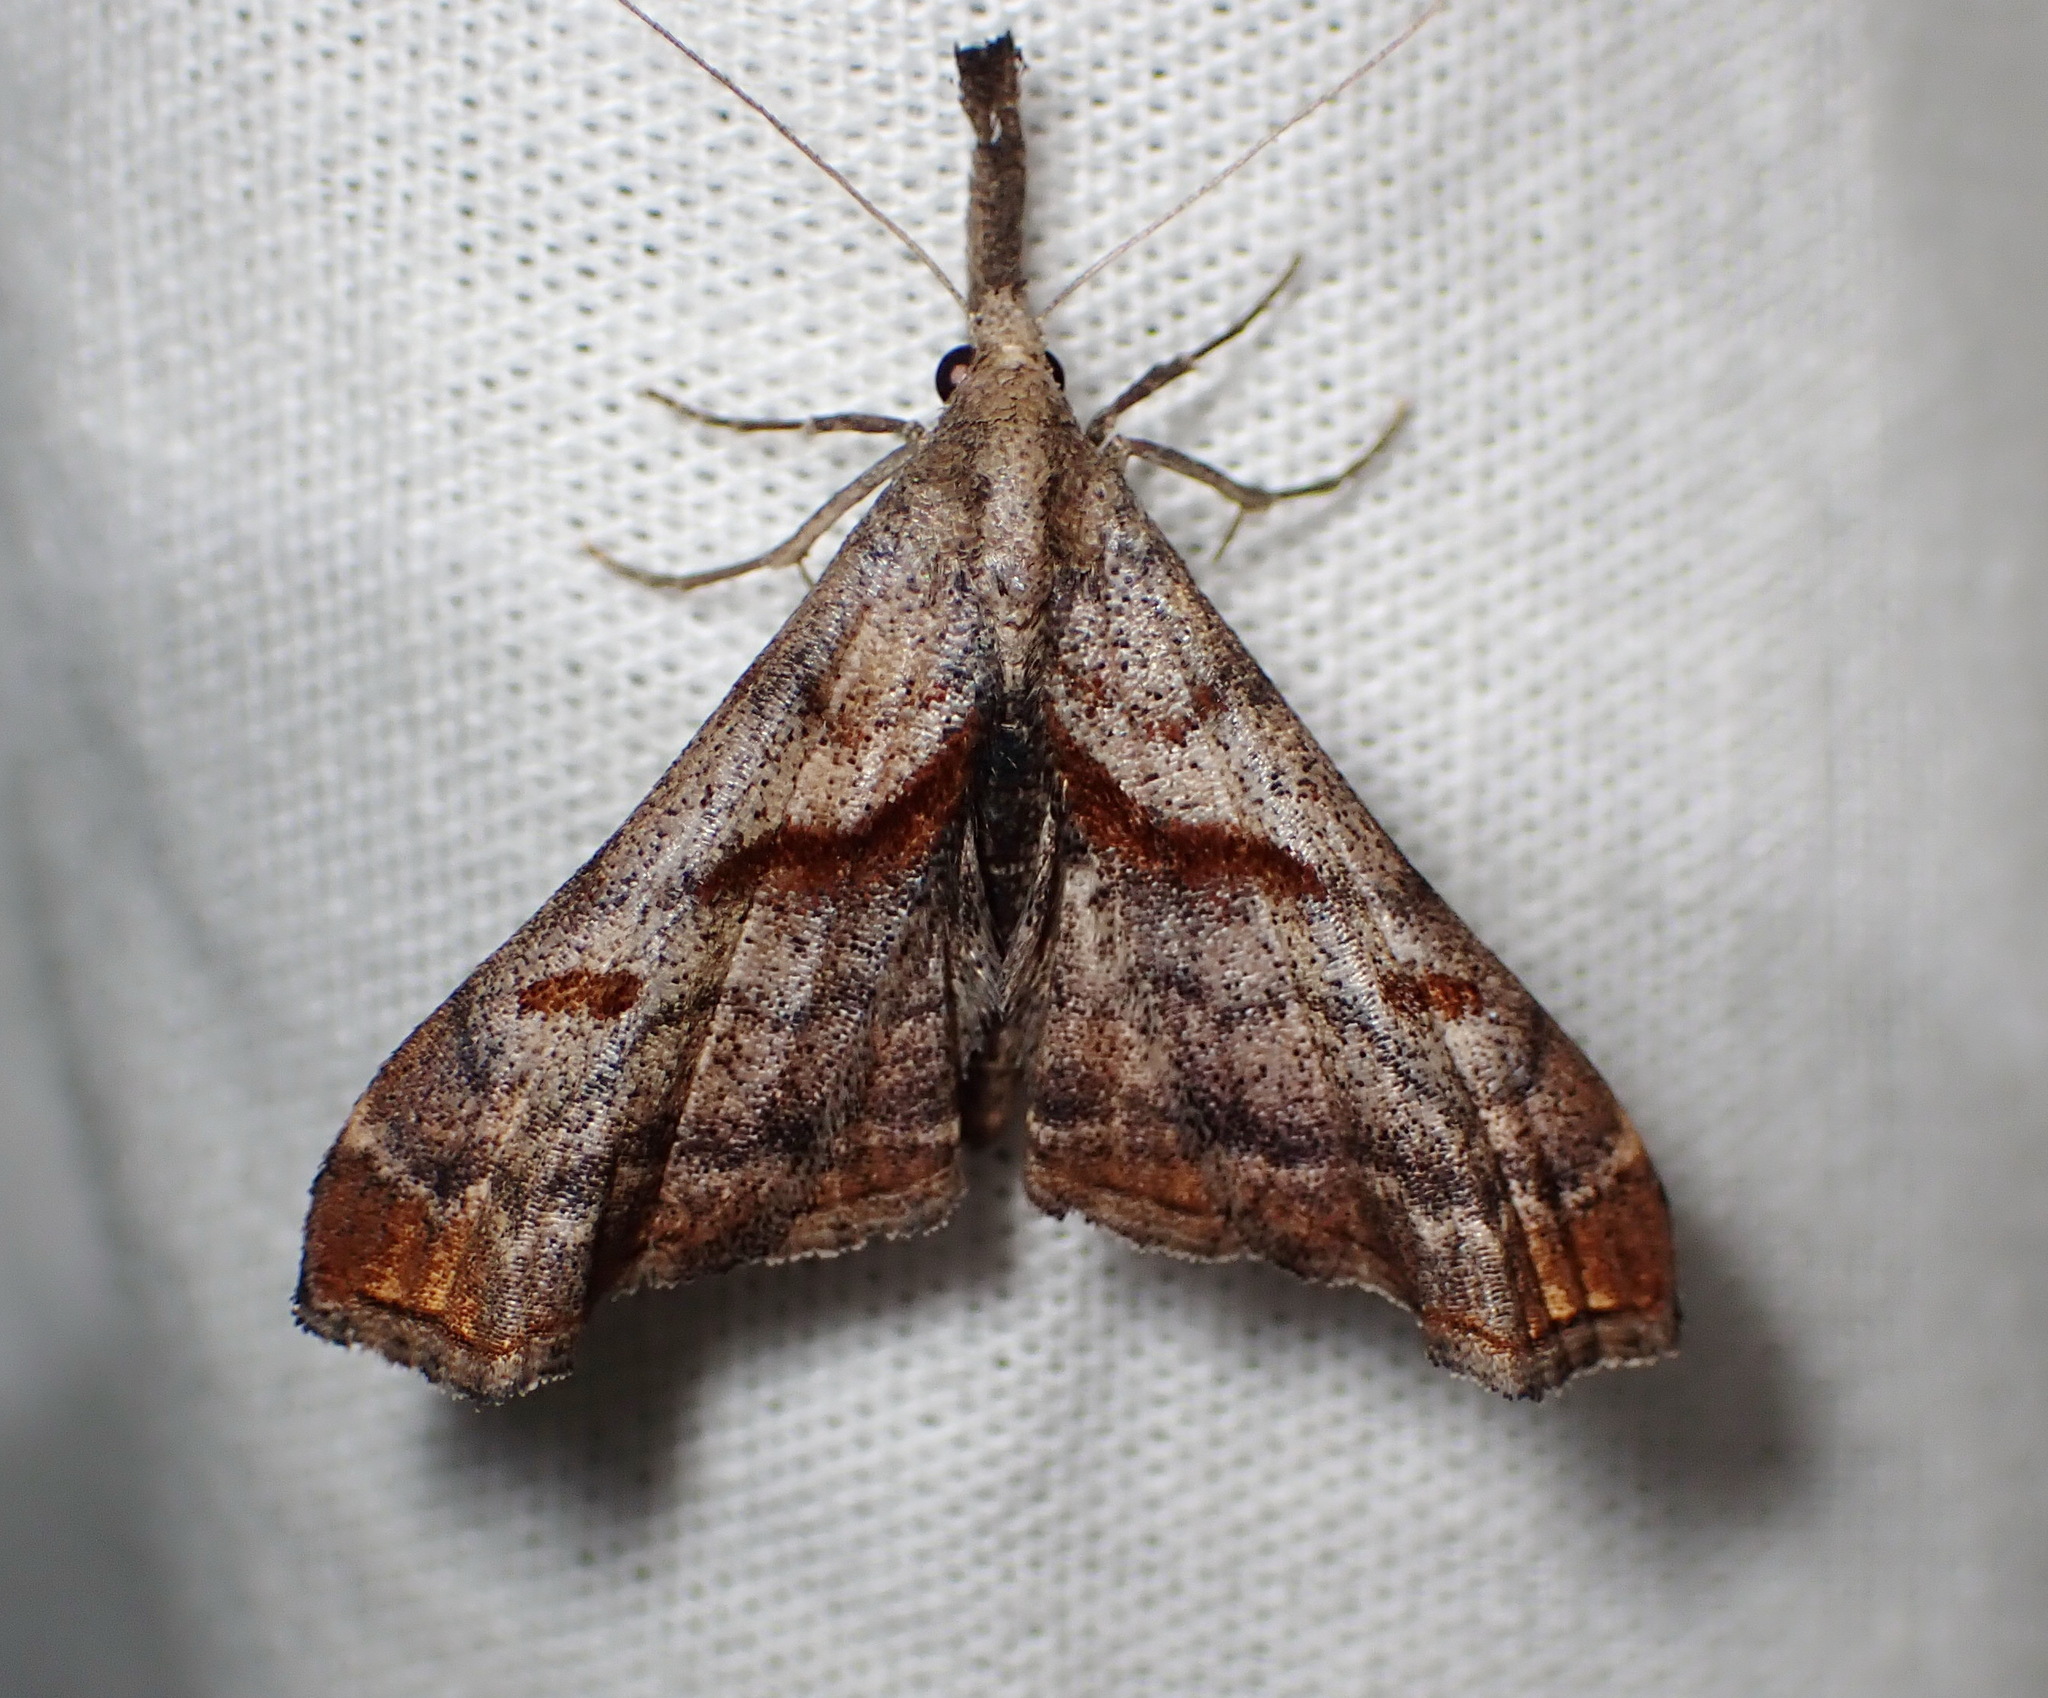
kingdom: Animalia
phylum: Arthropoda
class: Insecta
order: Lepidoptera
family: Erebidae
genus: Palthis
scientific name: Palthis angulalis
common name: Dark-spotted palthis moth
